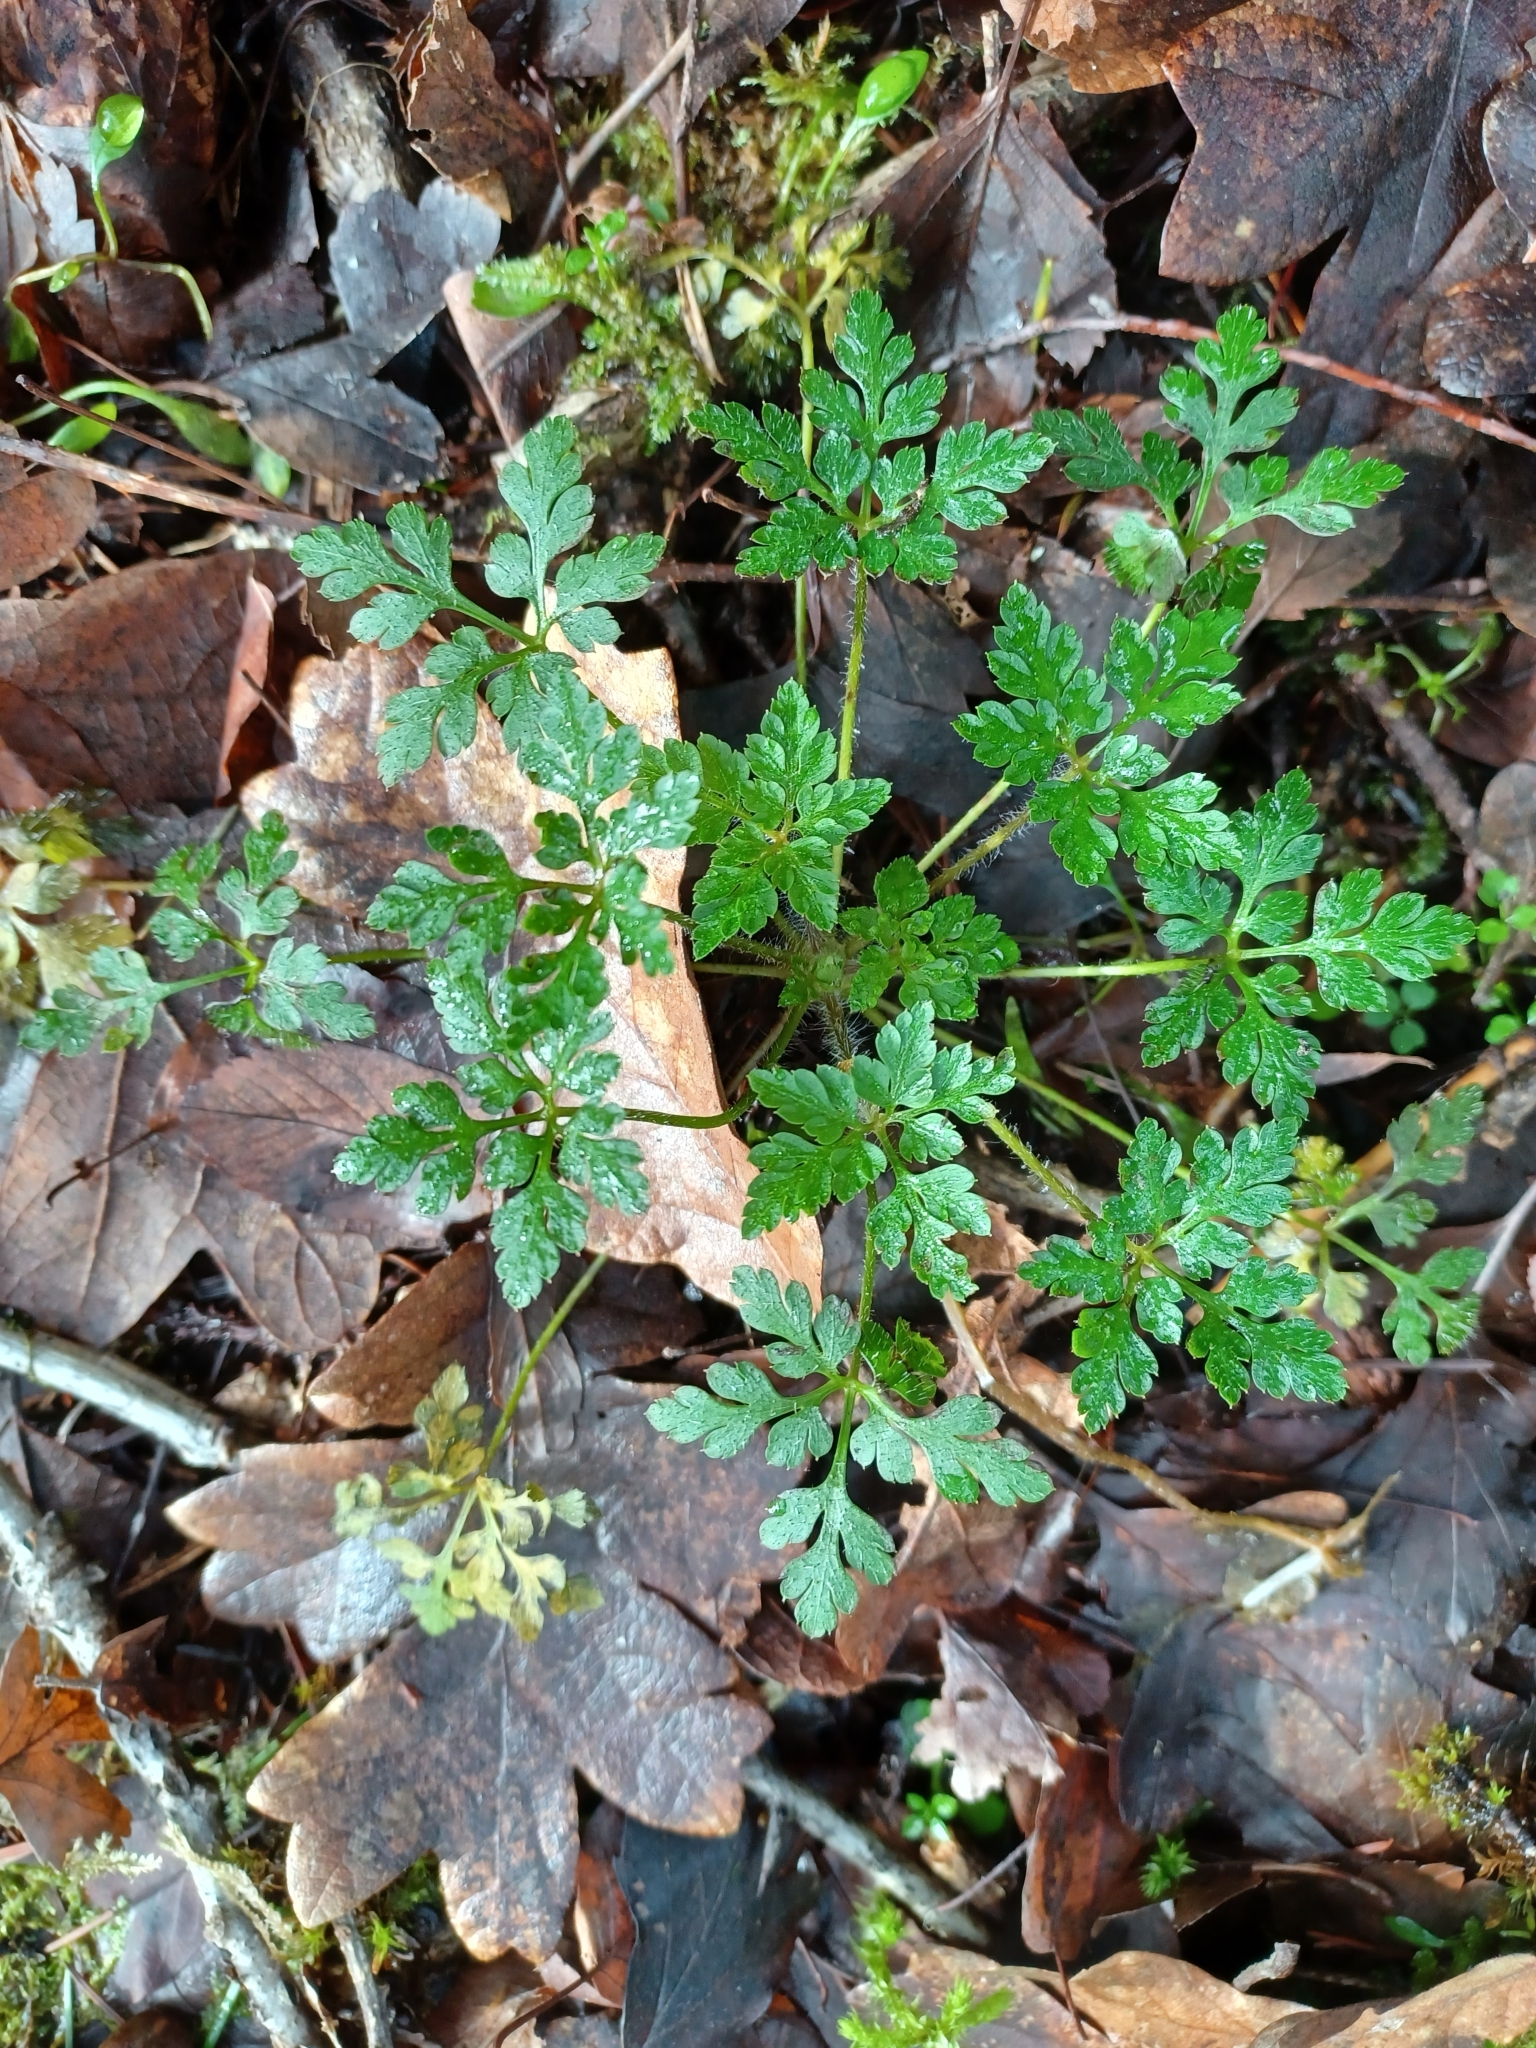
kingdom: Plantae
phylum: Tracheophyta
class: Magnoliopsida
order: Geraniales
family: Geraniaceae
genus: Geranium
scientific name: Geranium robertianum
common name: Herb-robert
